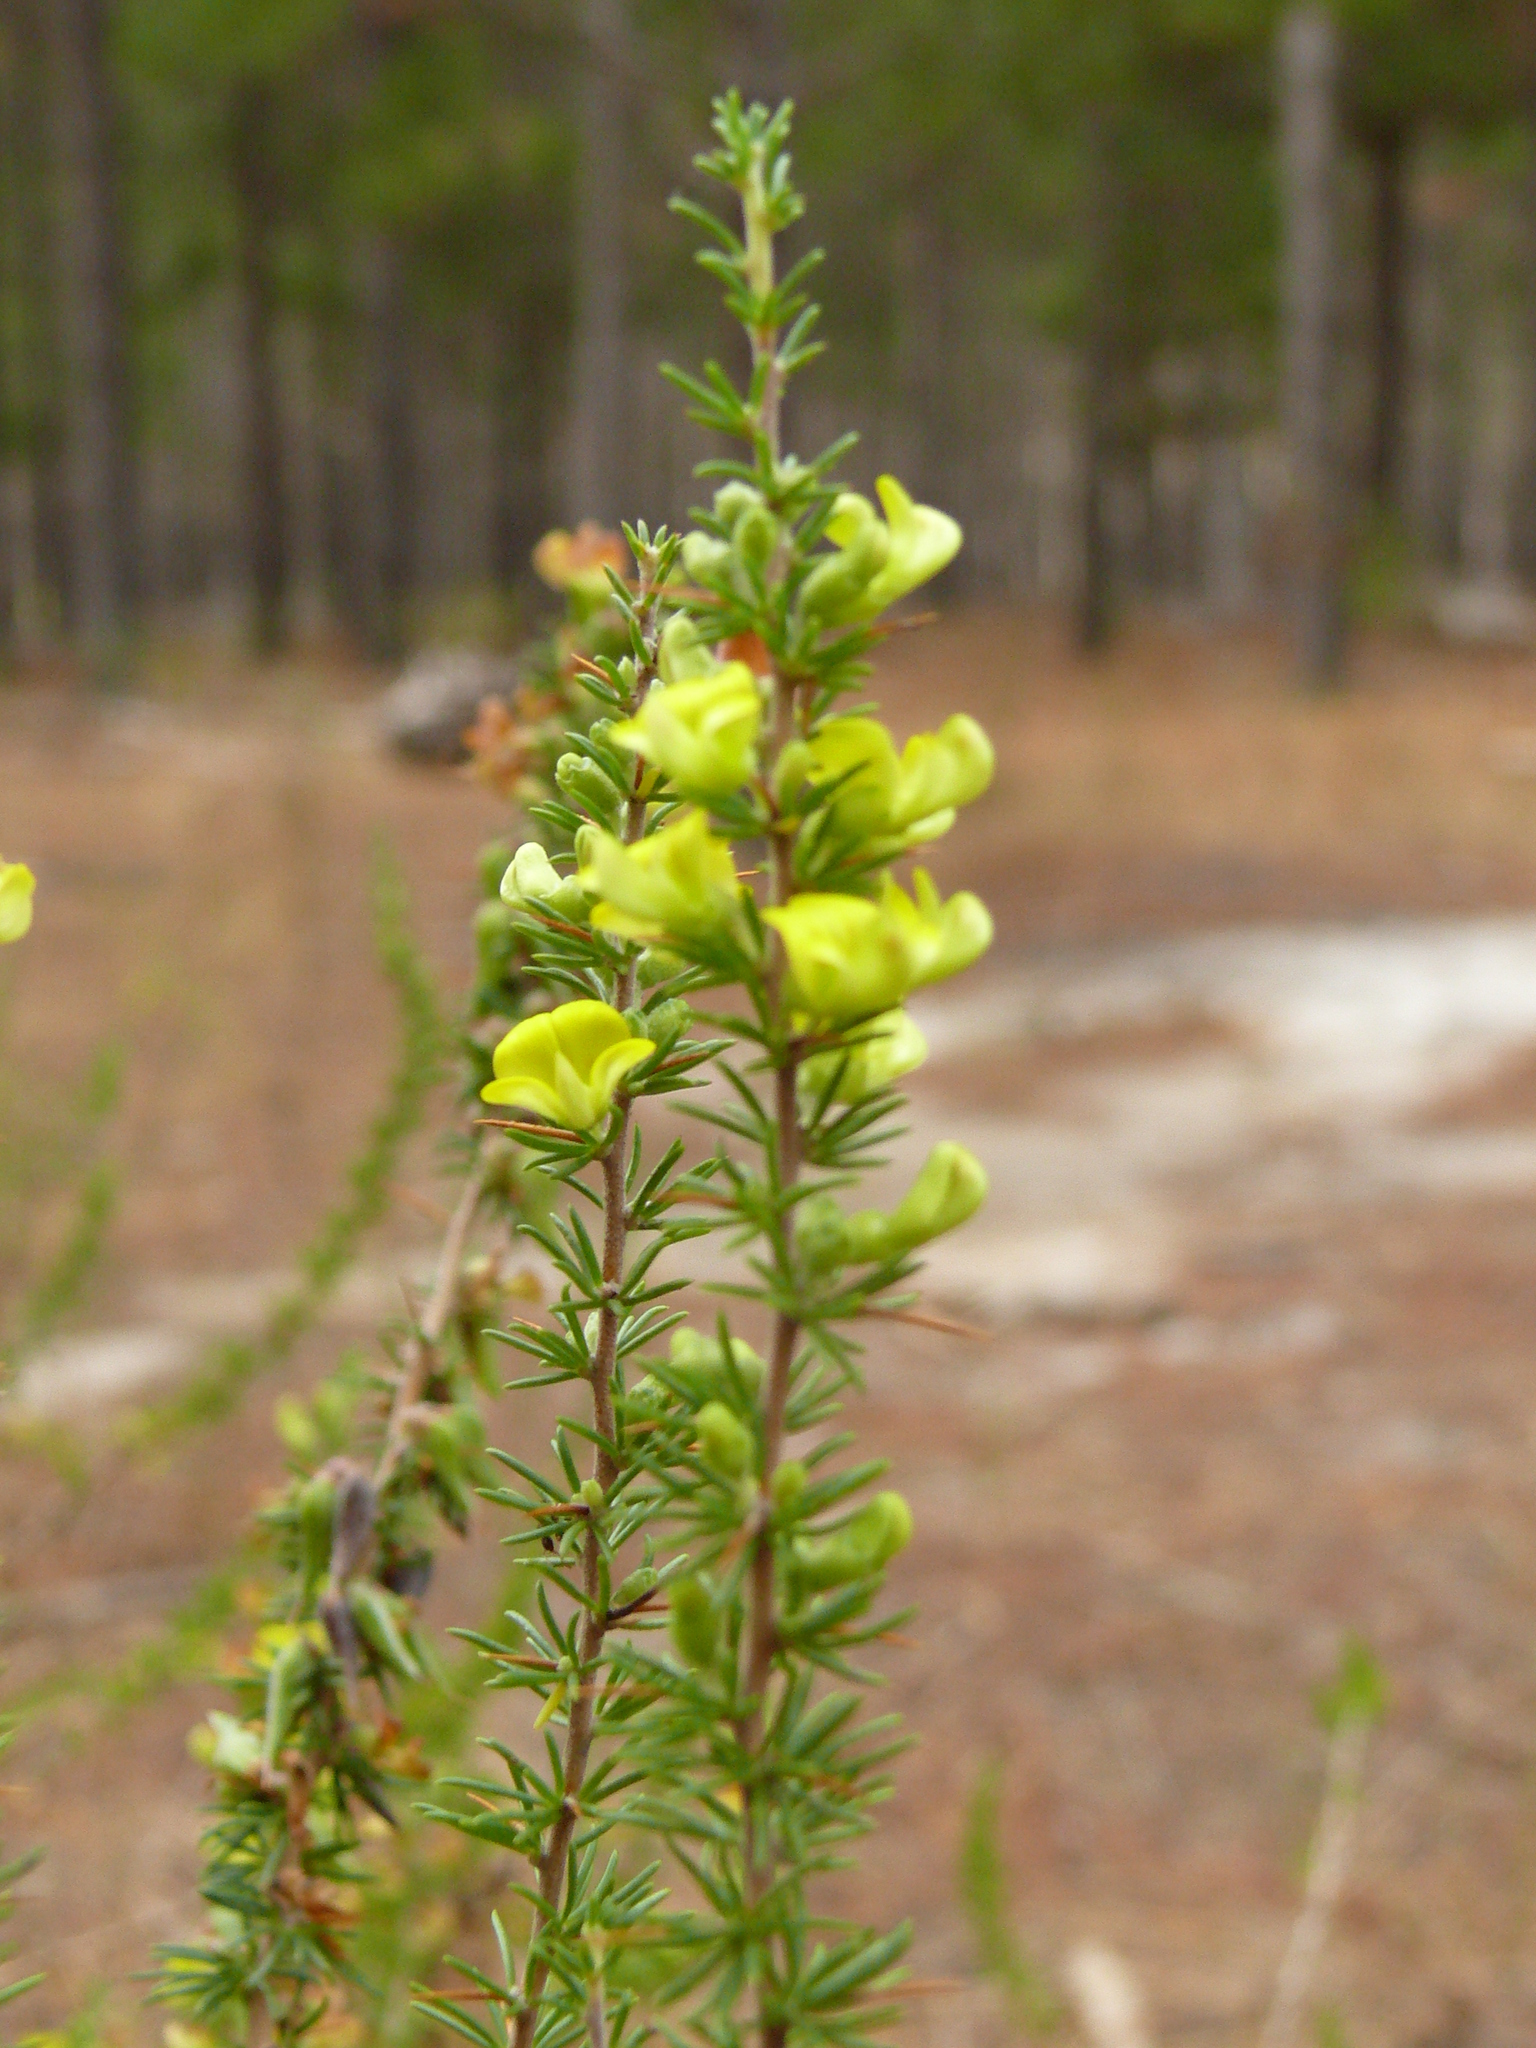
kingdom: Plantae
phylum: Tracheophyta
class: Magnoliopsida
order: Fabales
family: Fabaceae
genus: Aspalathus
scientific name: Aspalathus spinosa
